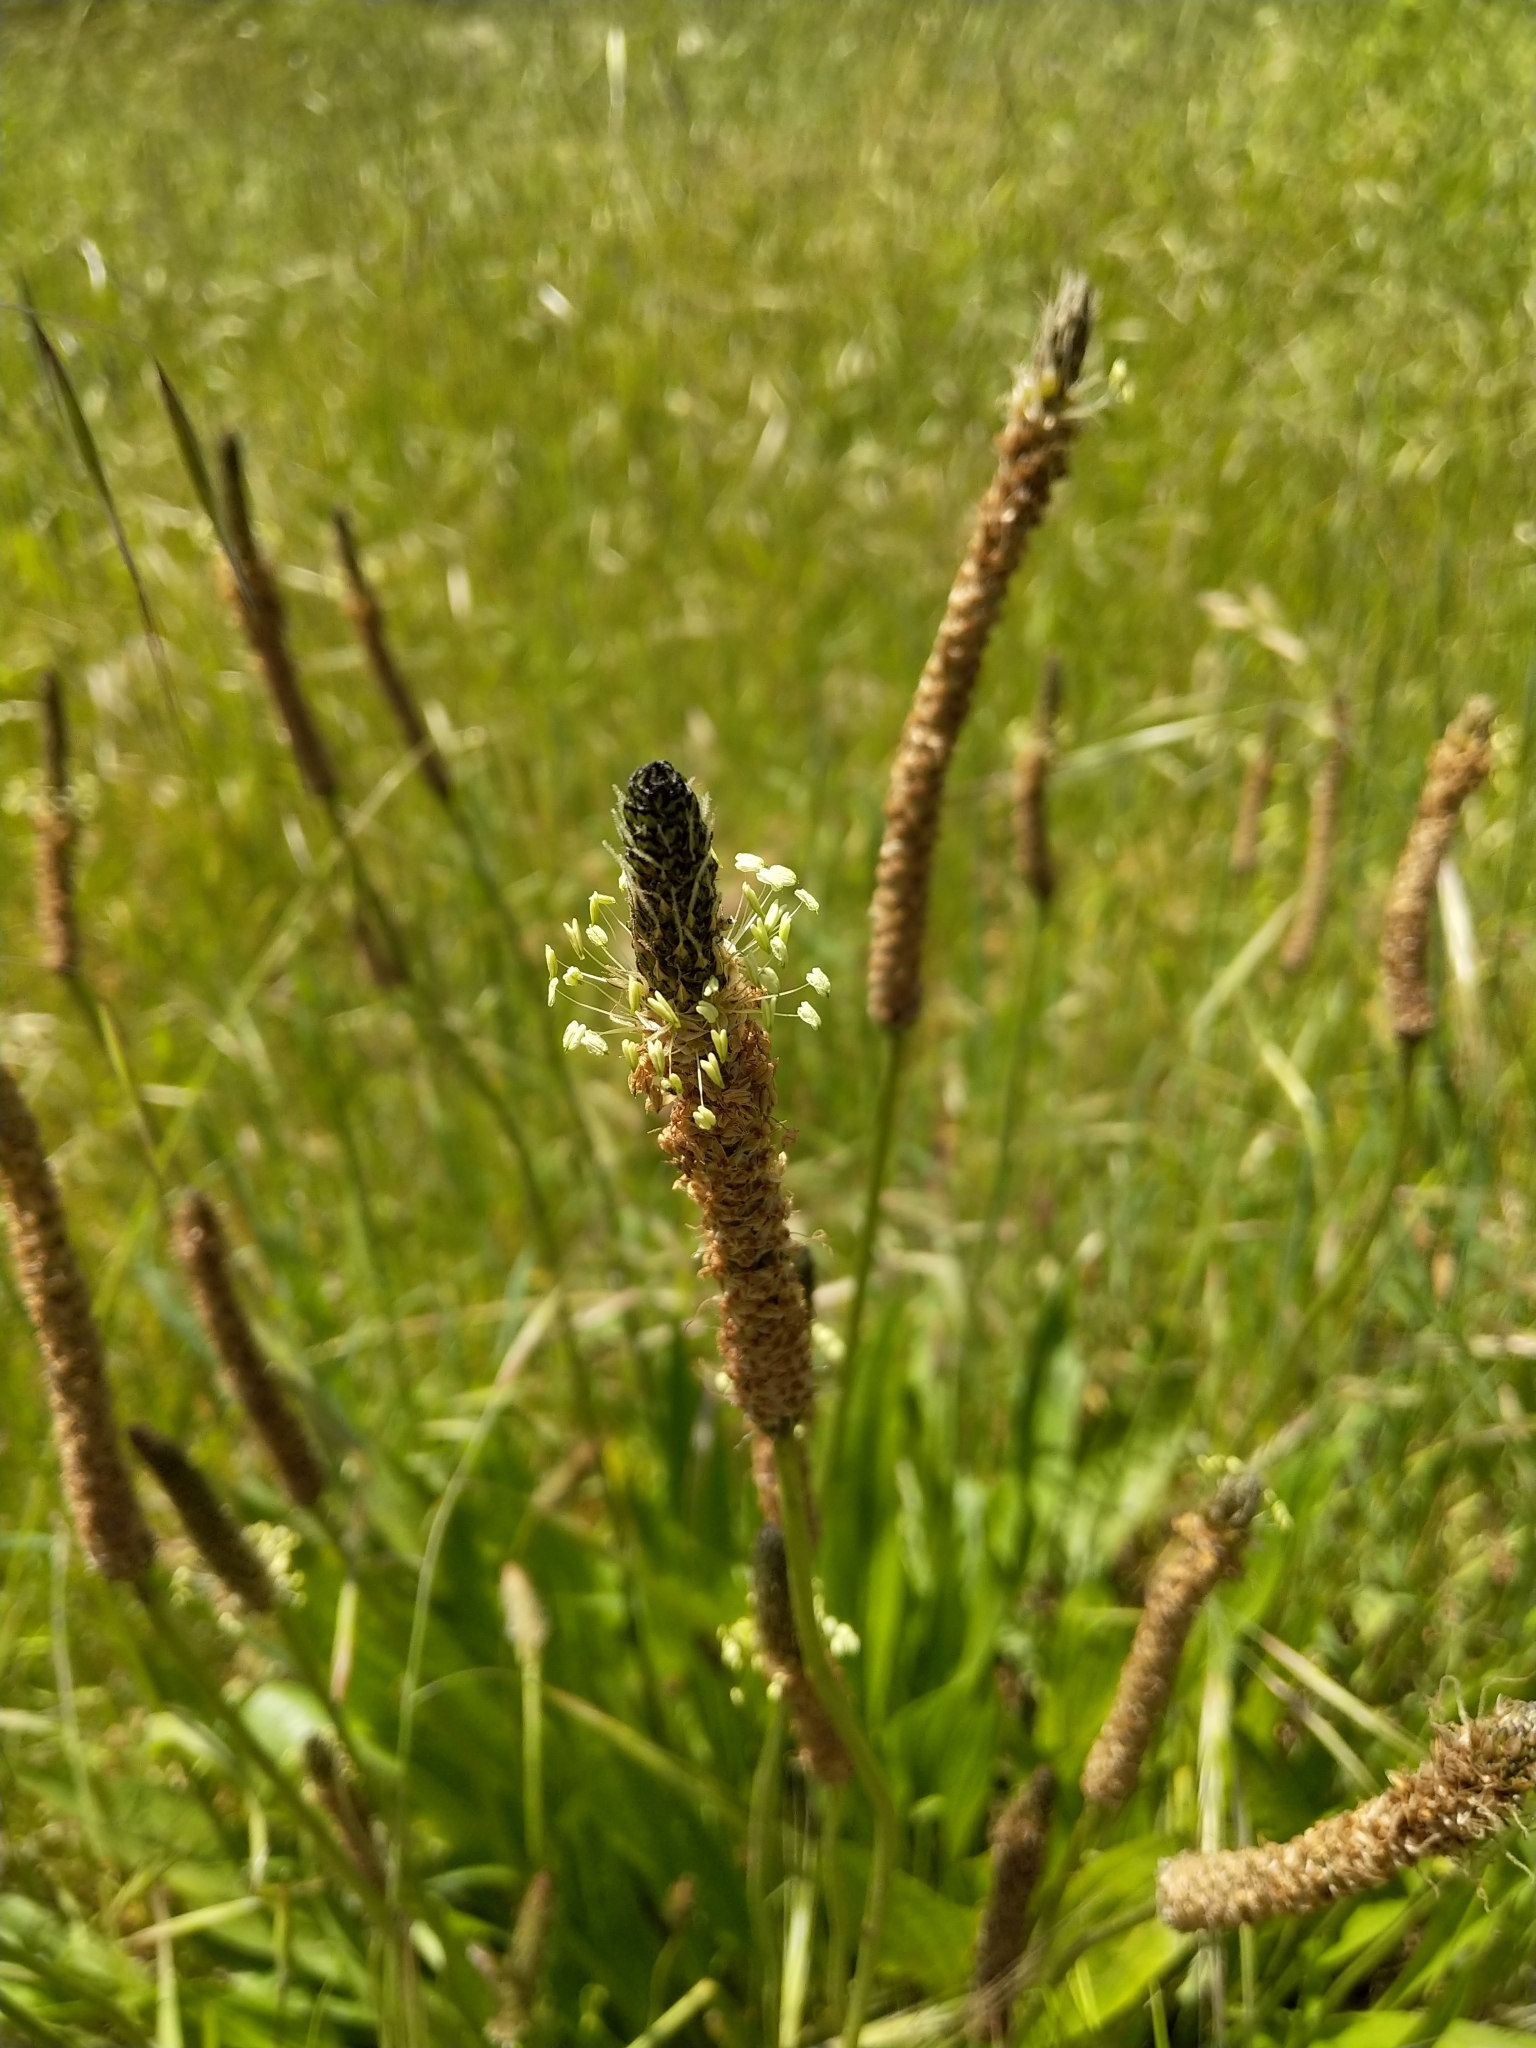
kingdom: Plantae
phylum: Tracheophyta
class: Magnoliopsida
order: Lamiales
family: Plantaginaceae
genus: Plantago
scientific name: Plantago lanceolata
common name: Ribwort plantain
